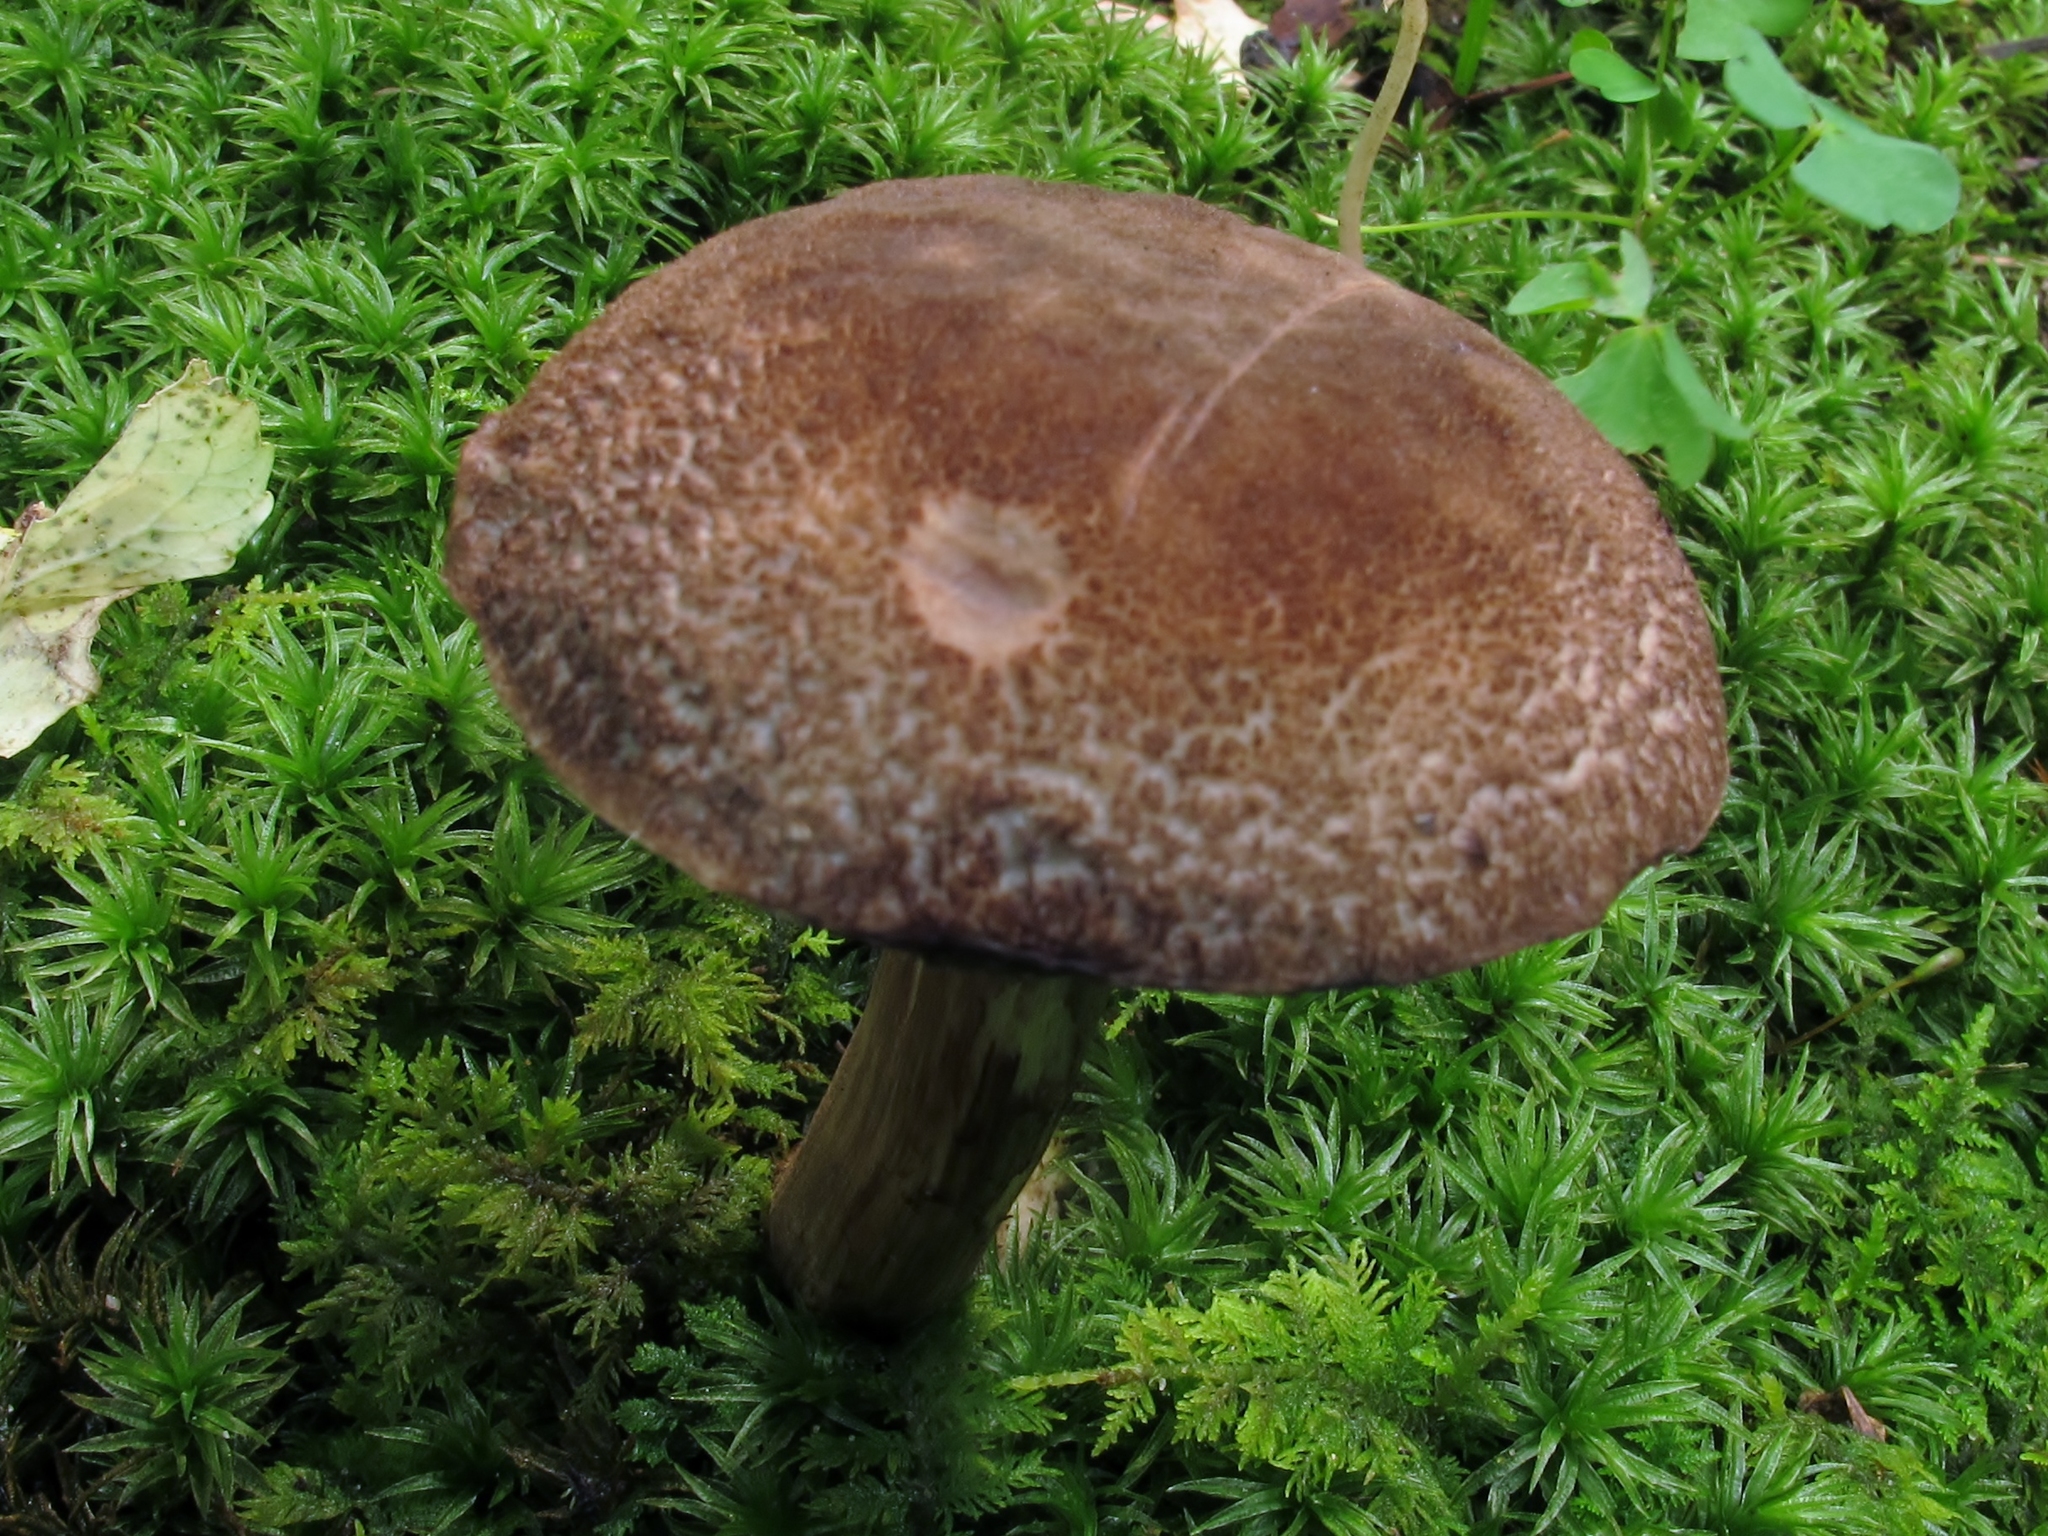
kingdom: Fungi
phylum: Basidiomycota
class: Agaricomycetes
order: Boletales
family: Boletaceae
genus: Porphyrellus
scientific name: Porphyrellus sordidus
